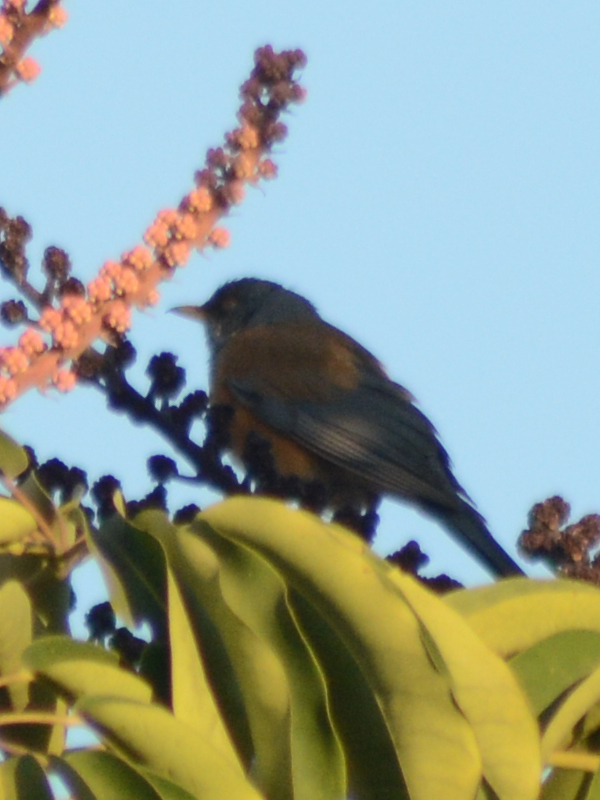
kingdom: Animalia
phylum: Chordata
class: Aves
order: Passeriformes
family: Turdidae
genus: Turdus
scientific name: Turdus rufopalliatus
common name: Rufous-backed robin
